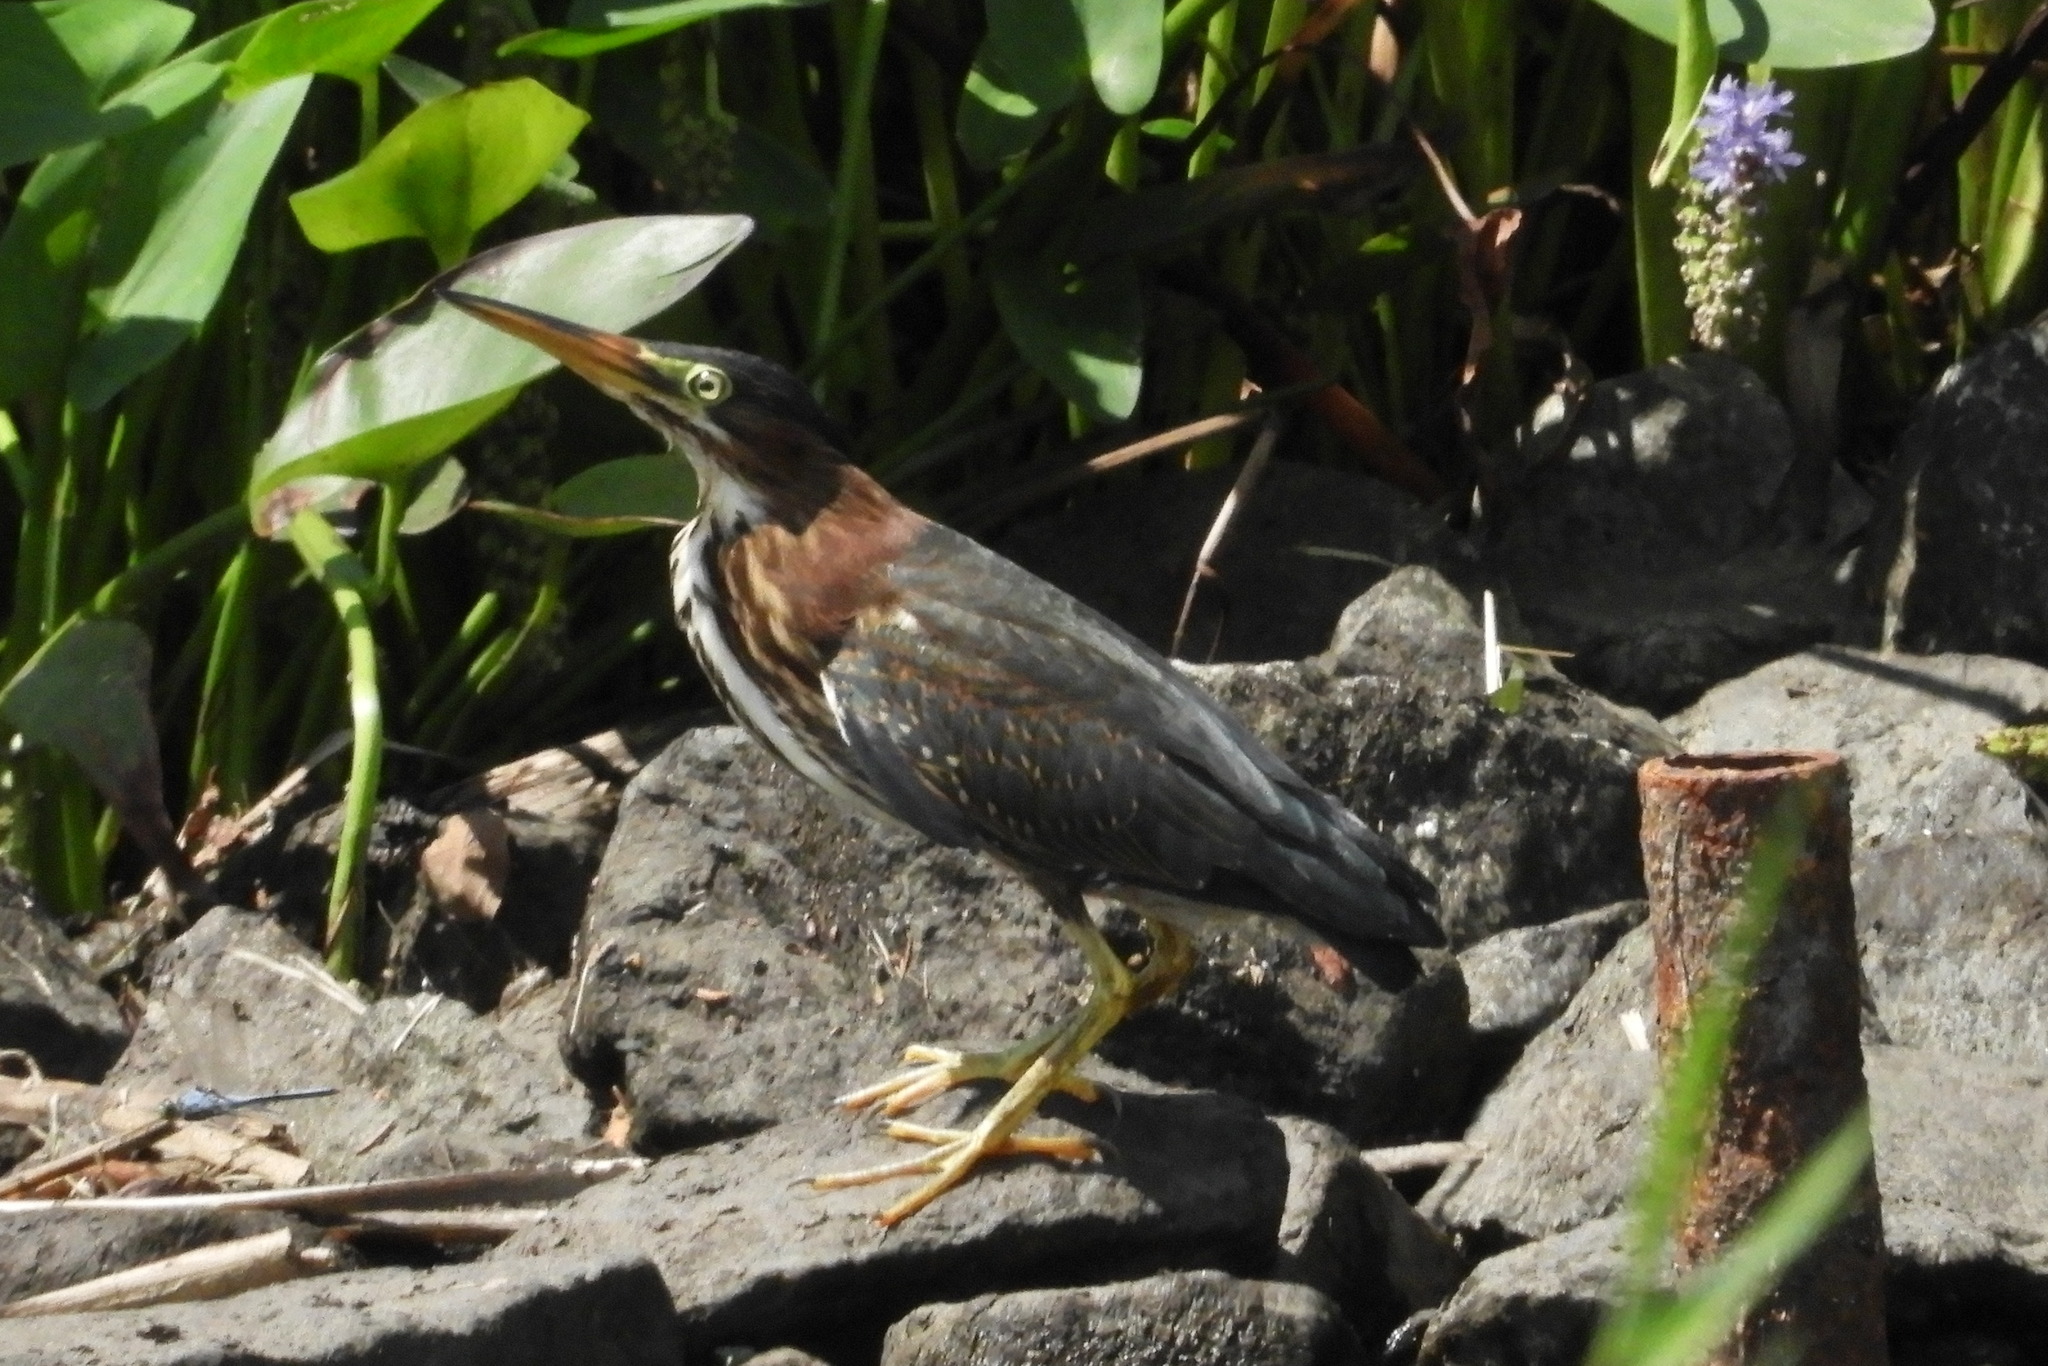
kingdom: Animalia
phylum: Chordata
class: Aves
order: Pelecaniformes
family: Ardeidae
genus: Butorides
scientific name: Butorides virescens
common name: Green heron
